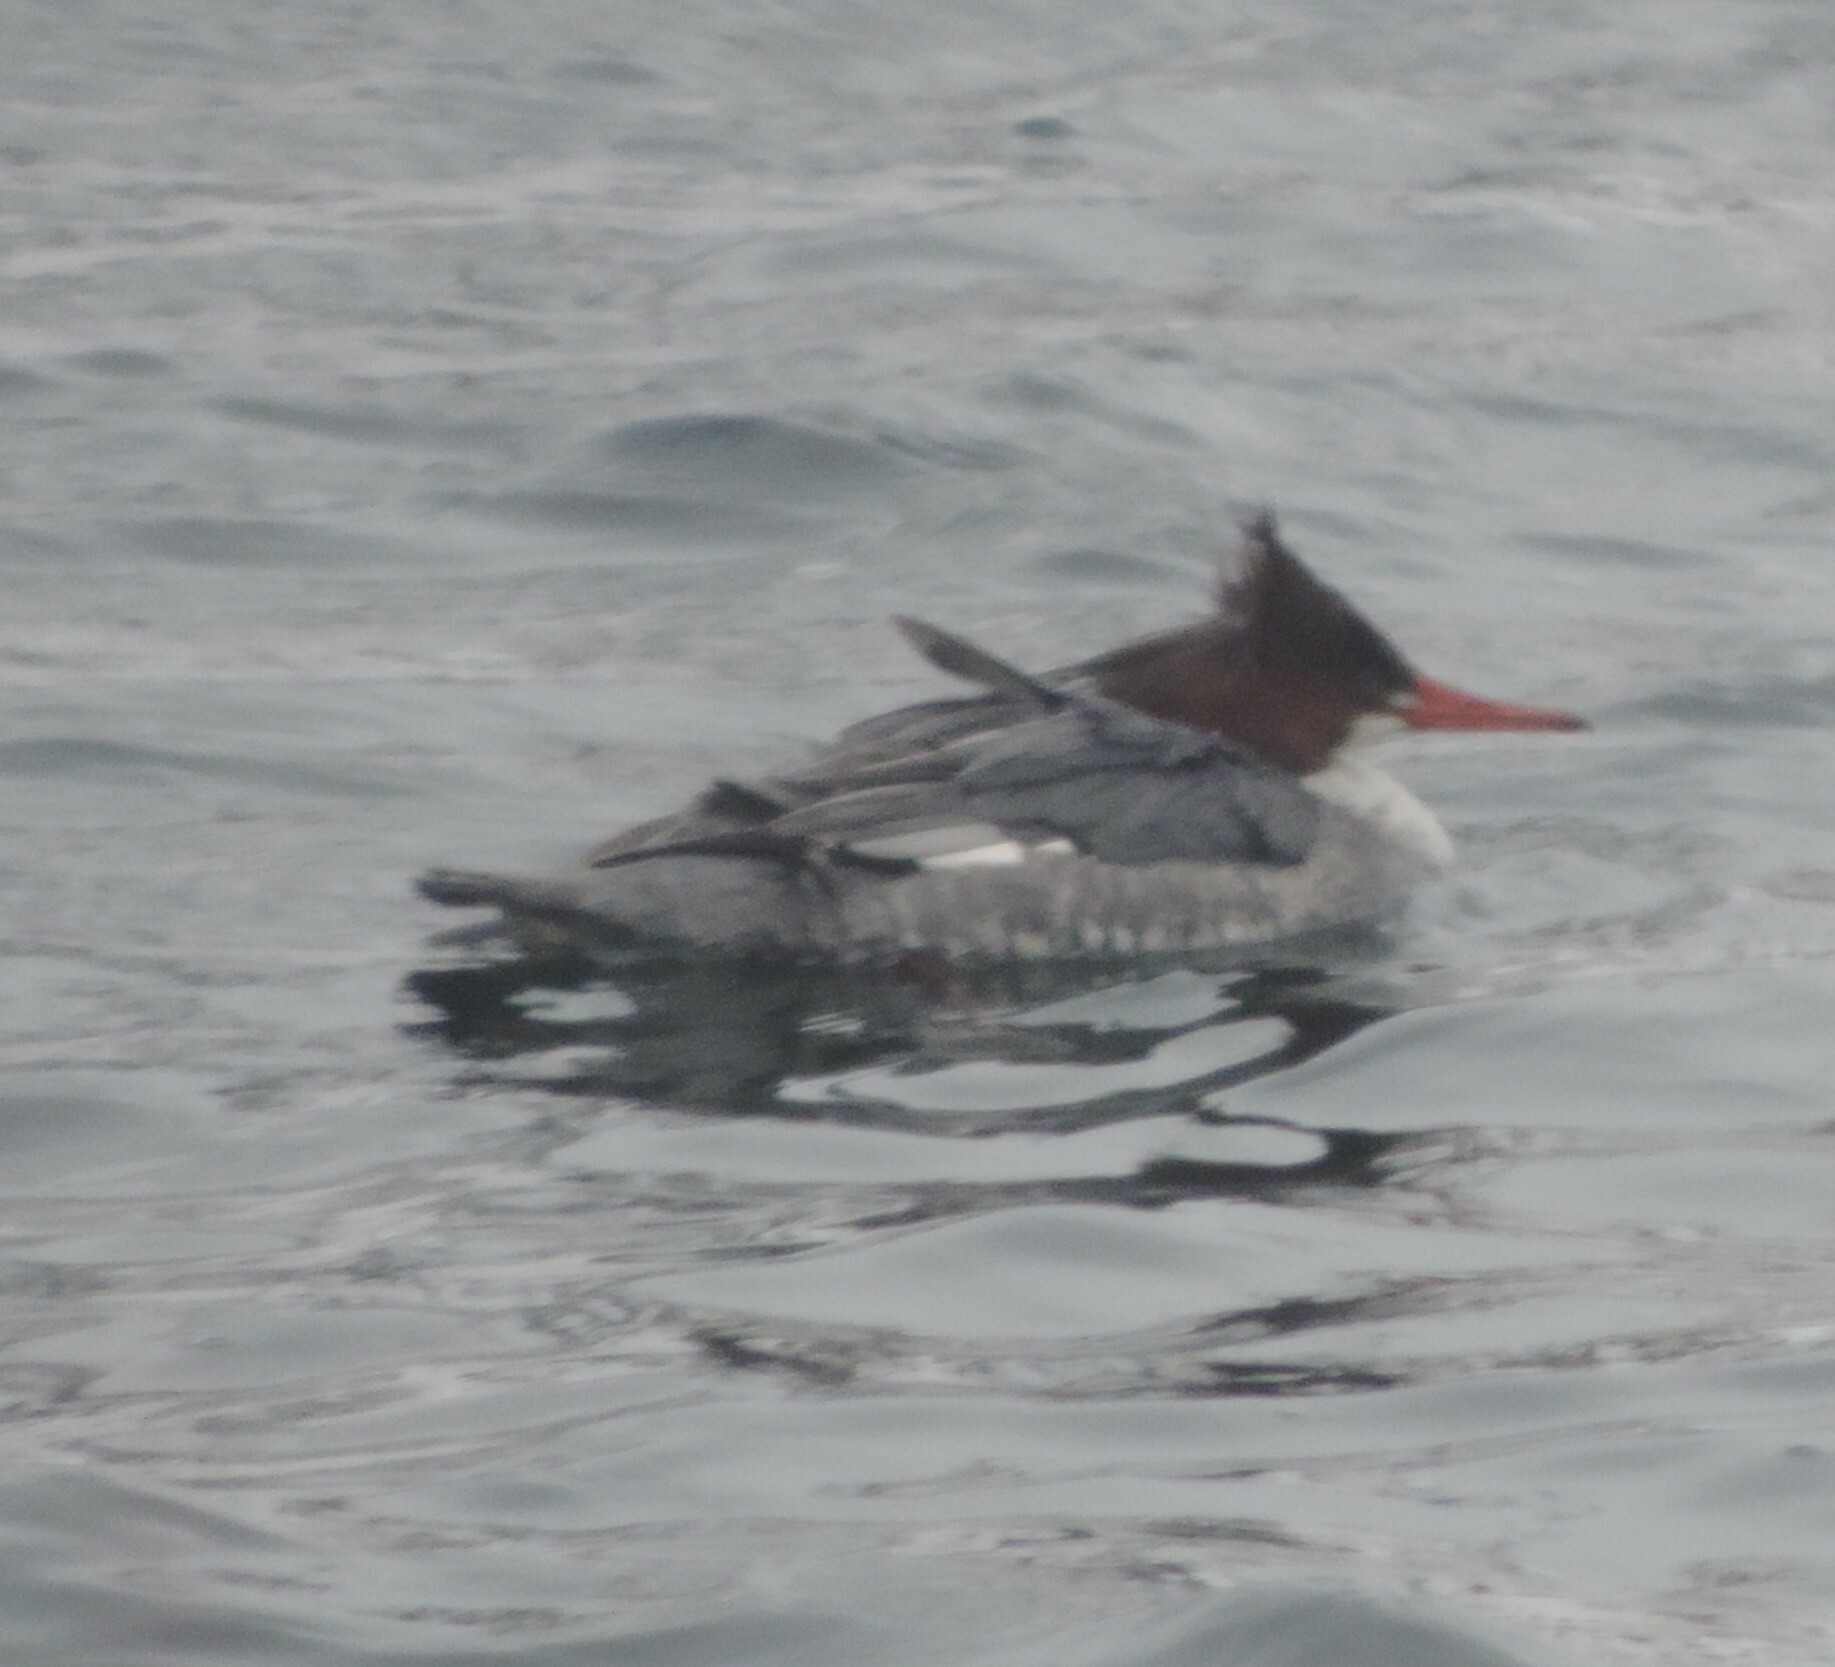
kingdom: Animalia
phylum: Chordata
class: Aves
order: Anseriformes
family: Anatidae
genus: Mergus
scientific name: Mergus merganser
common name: Common merganser
